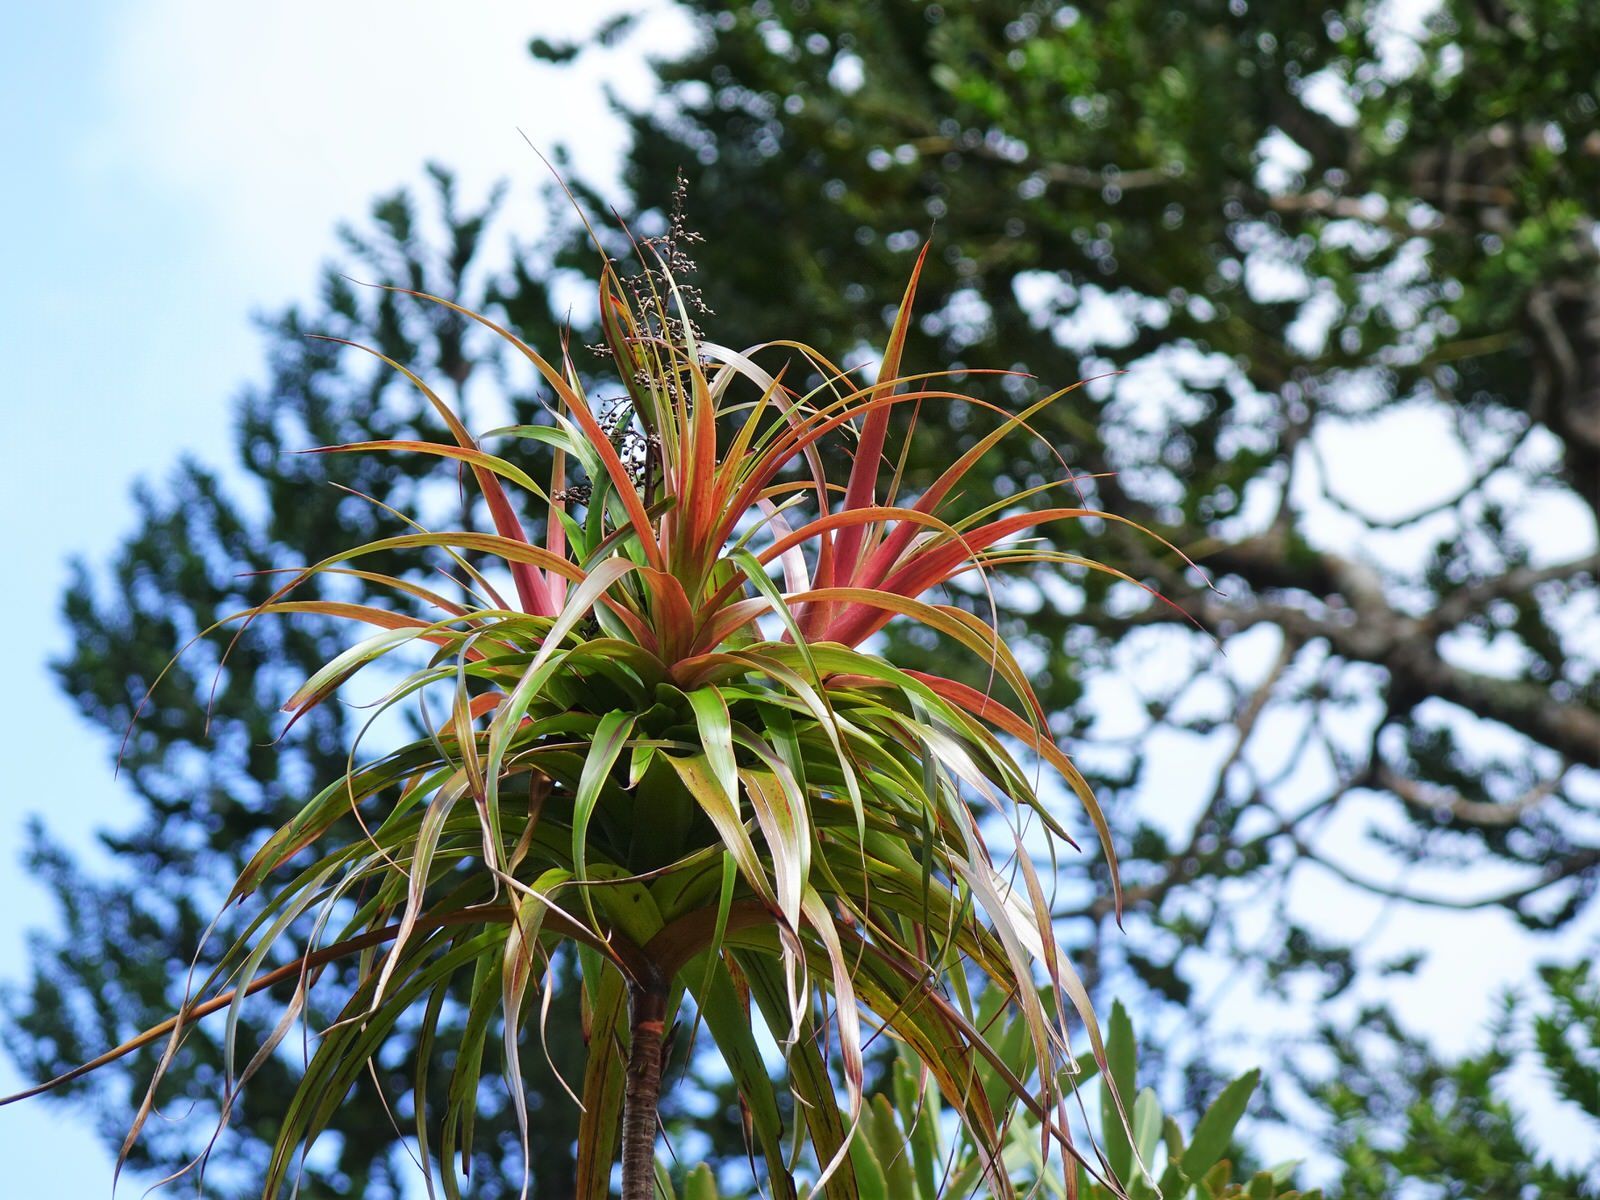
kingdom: Plantae
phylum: Tracheophyta
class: Magnoliopsida
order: Ericales
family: Ericaceae
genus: Dracophyllum
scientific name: Dracophyllum latifolium
